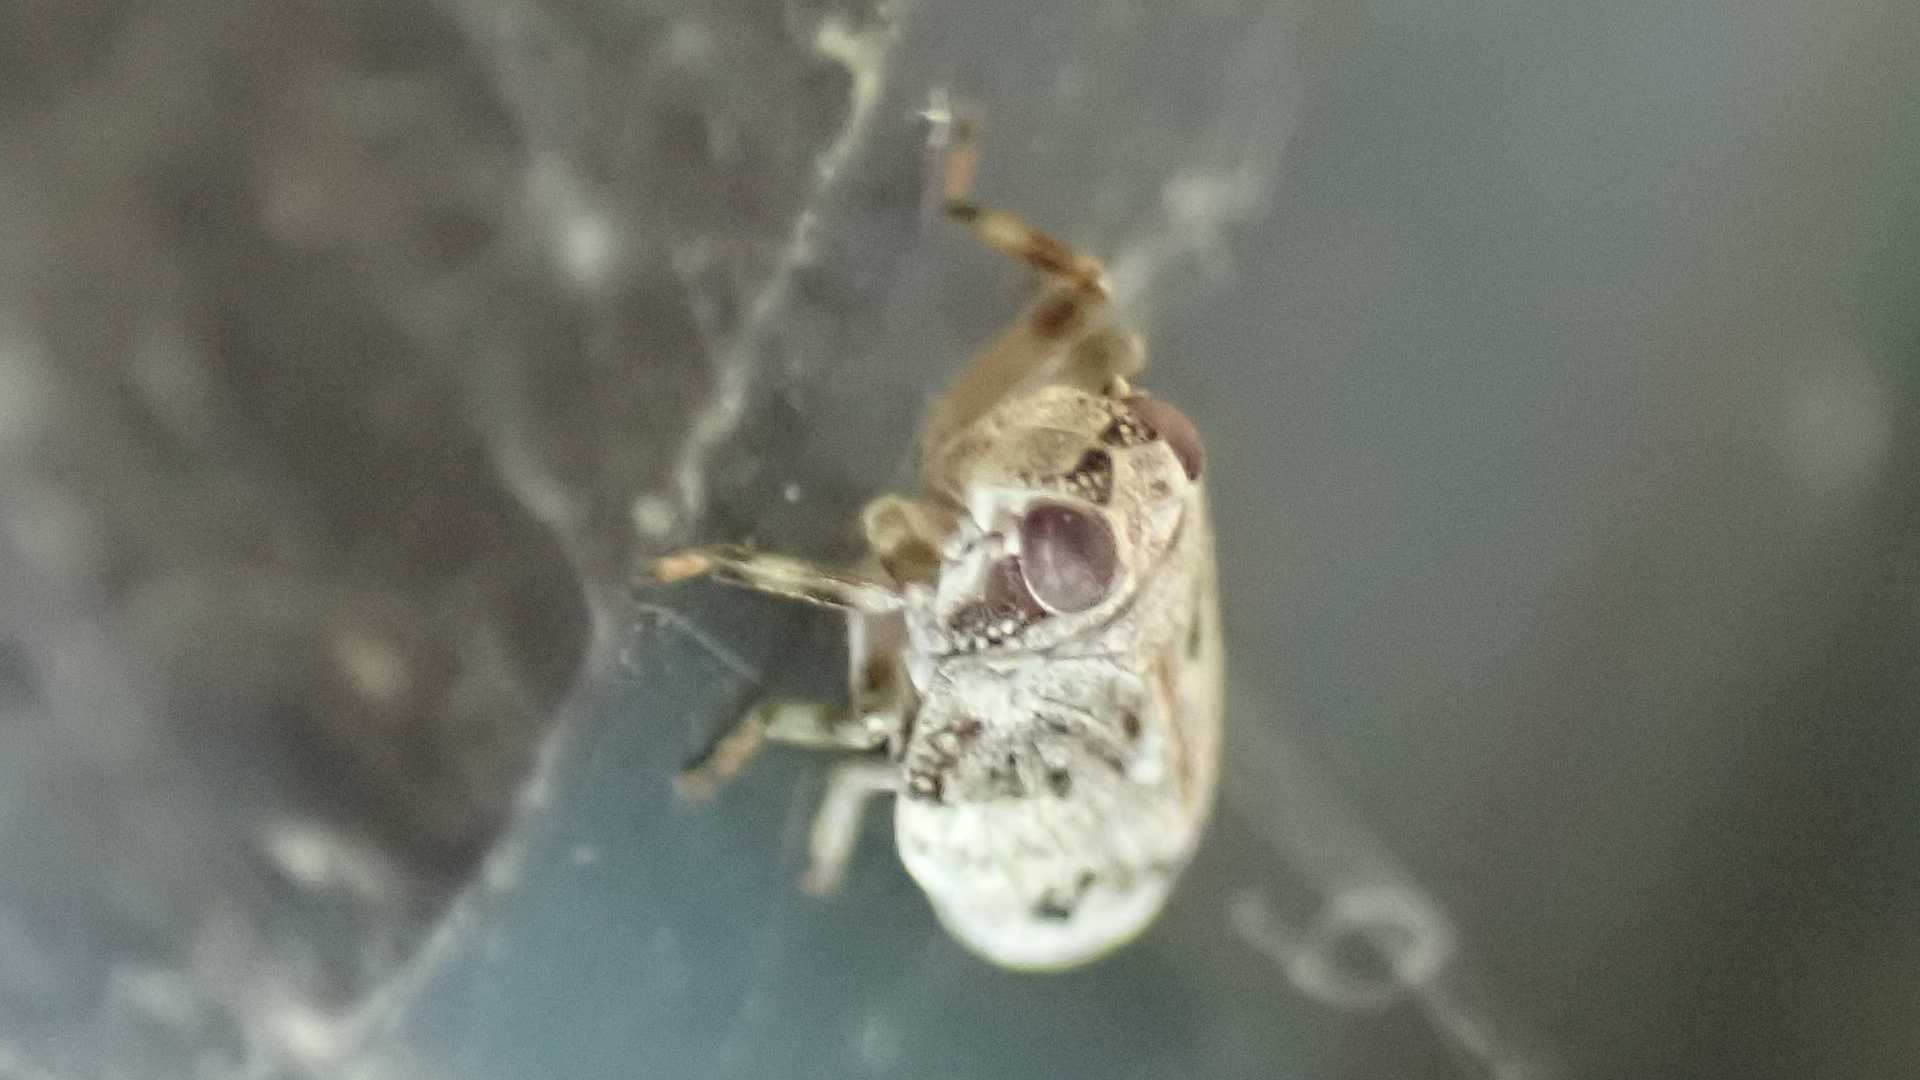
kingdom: Animalia
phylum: Arthropoda
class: Insecta
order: Hemiptera
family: Issidae
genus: Issus
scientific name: Issus coleoptratus
